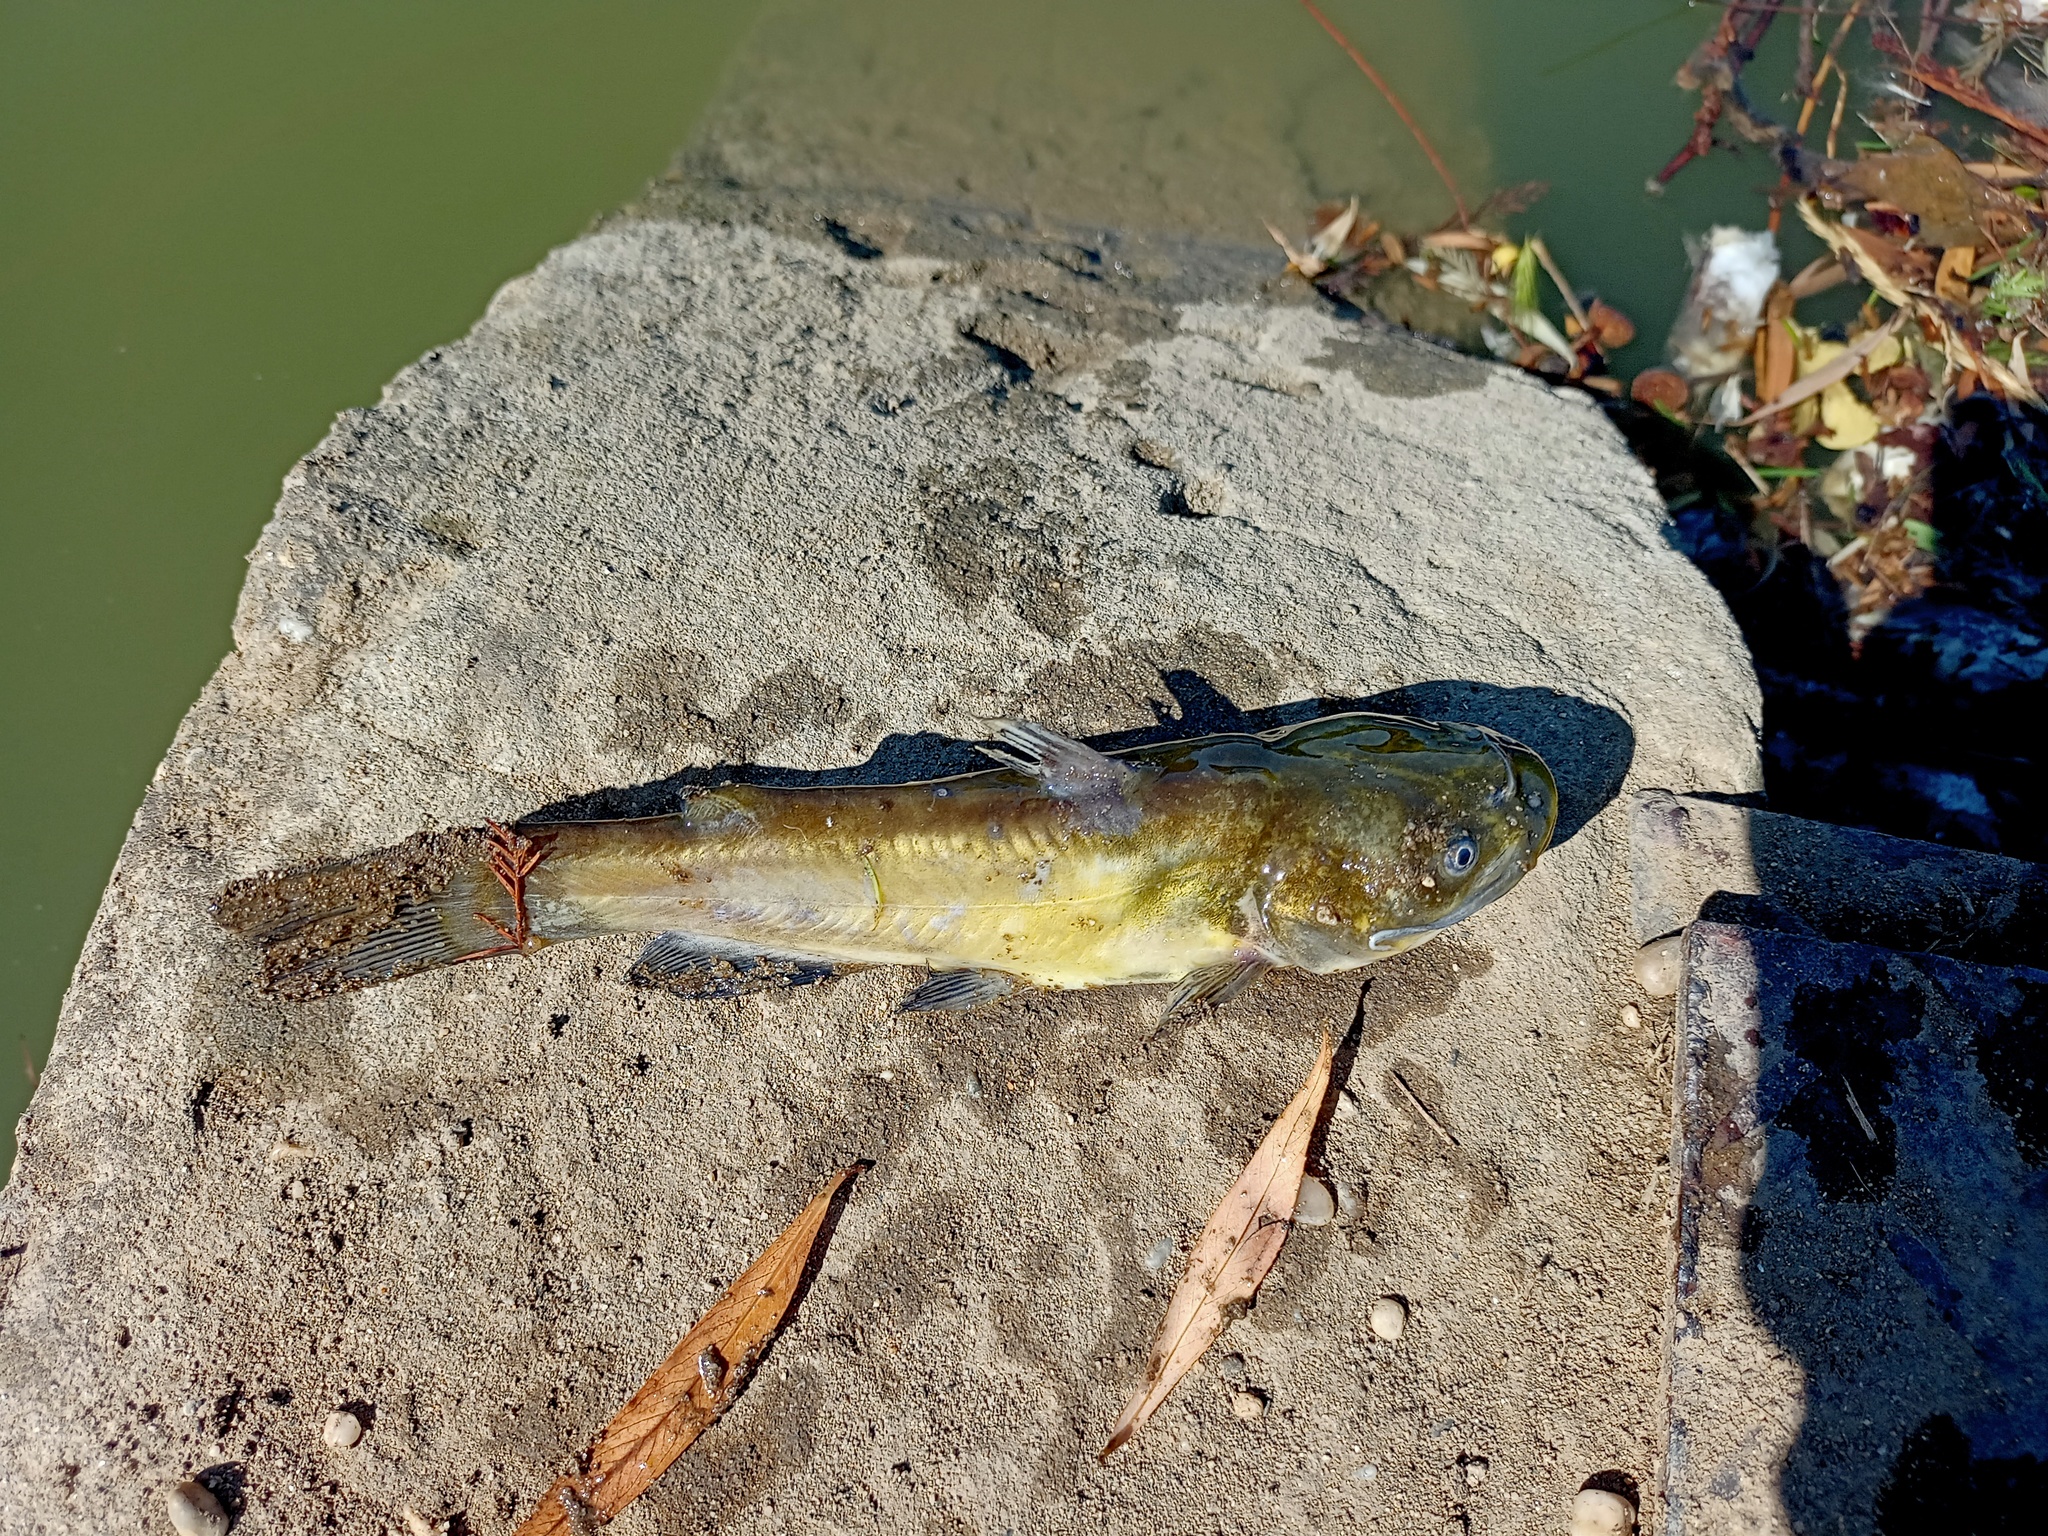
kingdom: Animalia
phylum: Chordata
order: Siluriformes
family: Ictaluridae
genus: Ameiurus
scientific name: Ameiurus nebulosus
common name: Brown bullhead
